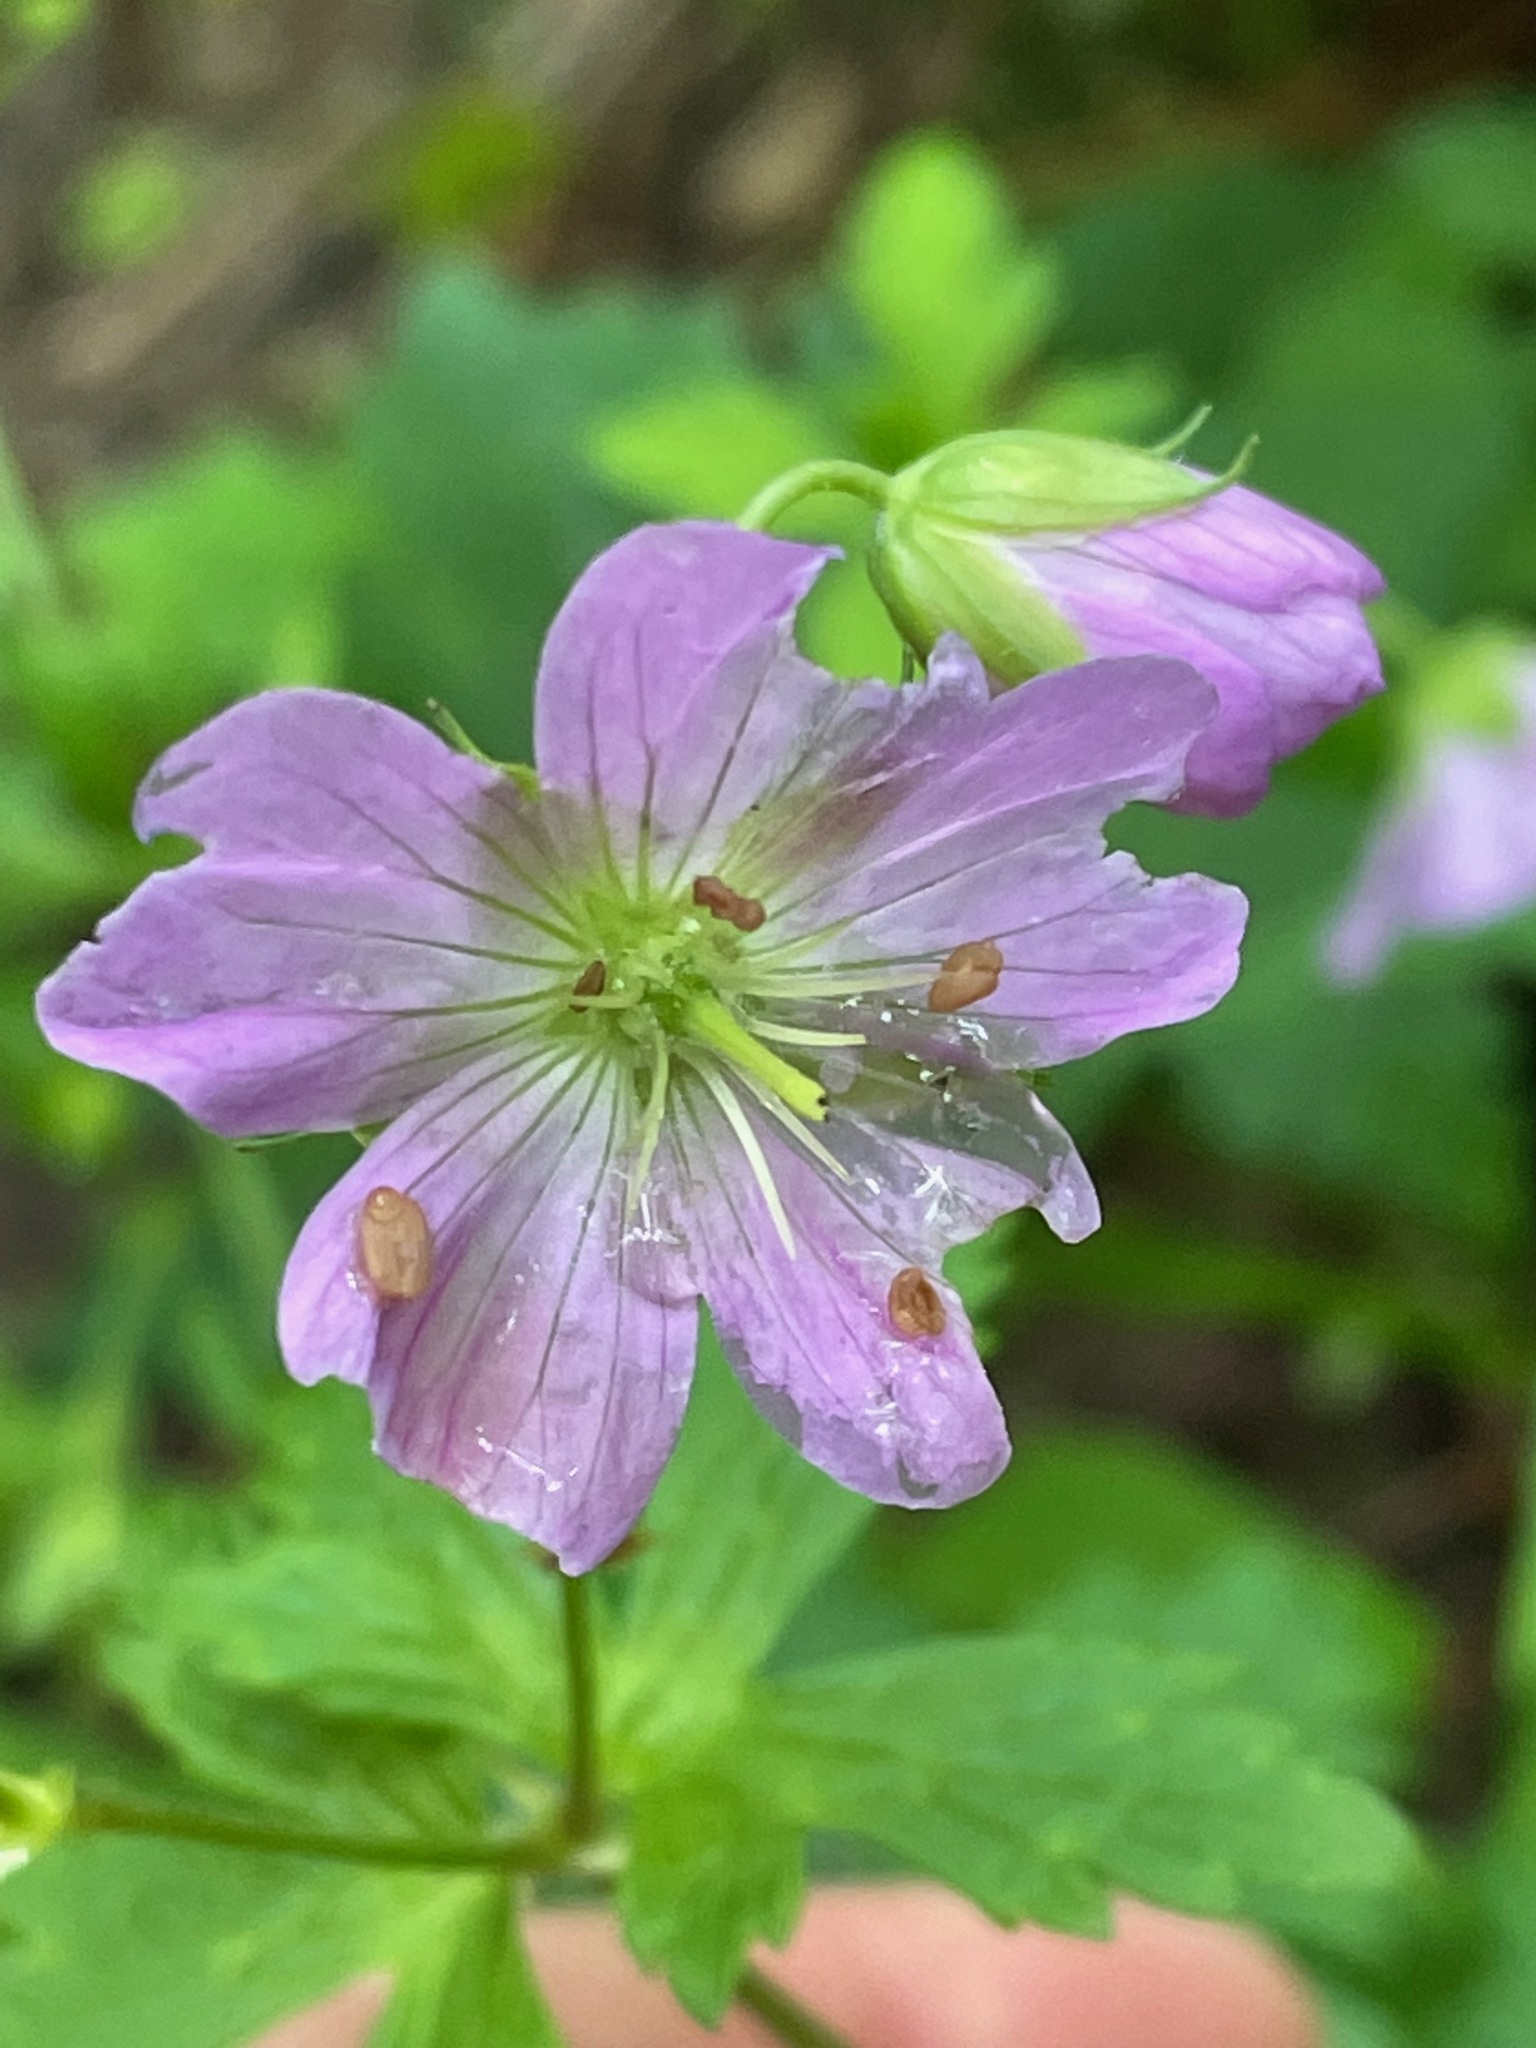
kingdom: Plantae
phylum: Tracheophyta
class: Magnoliopsida
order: Geraniales
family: Geraniaceae
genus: Geranium
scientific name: Geranium maculatum
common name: Spotted geranium
